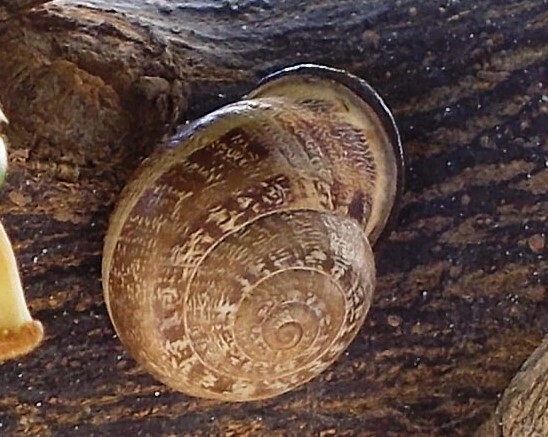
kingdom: Animalia
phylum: Mollusca
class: Gastropoda
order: Stylommatophora
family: Helicidae
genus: Eobania
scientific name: Eobania vermiculata
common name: Chocolateband snail
